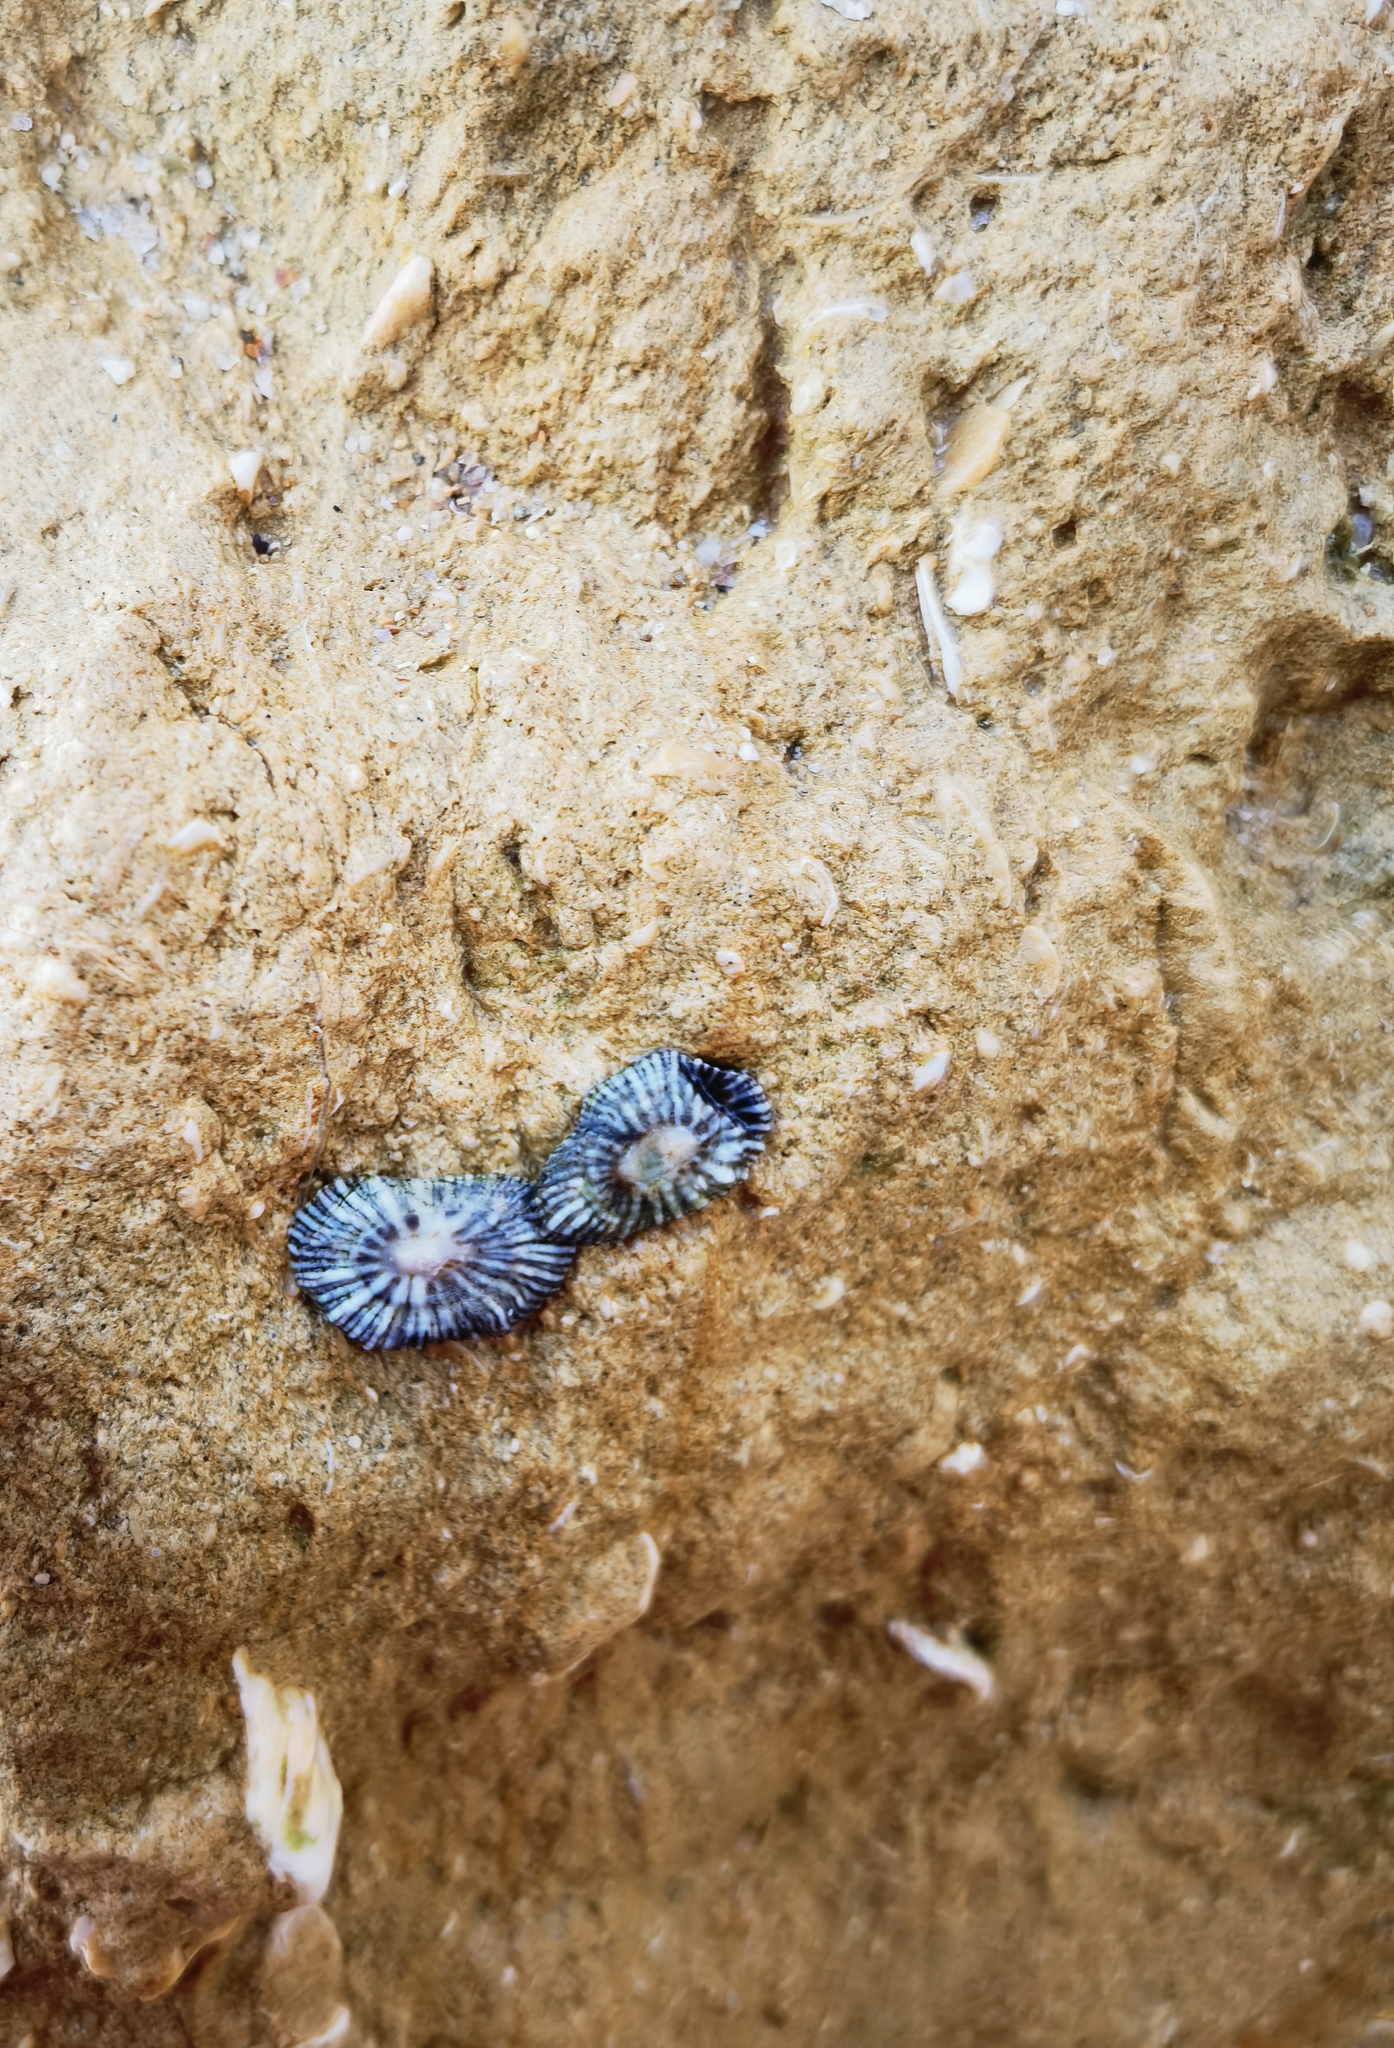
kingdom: Animalia
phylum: Mollusca
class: Gastropoda
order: Siphonariida
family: Siphonariidae
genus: Siphonaria
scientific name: Siphonaria pectinata
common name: Striped false limpet
